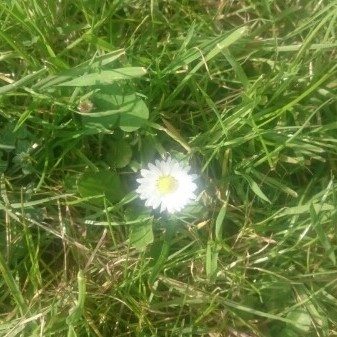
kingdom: Plantae
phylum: Tracheophyta
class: Magnoliopsida
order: Asterales
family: Asteraceae
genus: Bellis
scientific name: Bellis perennis
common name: Lawndaisy
